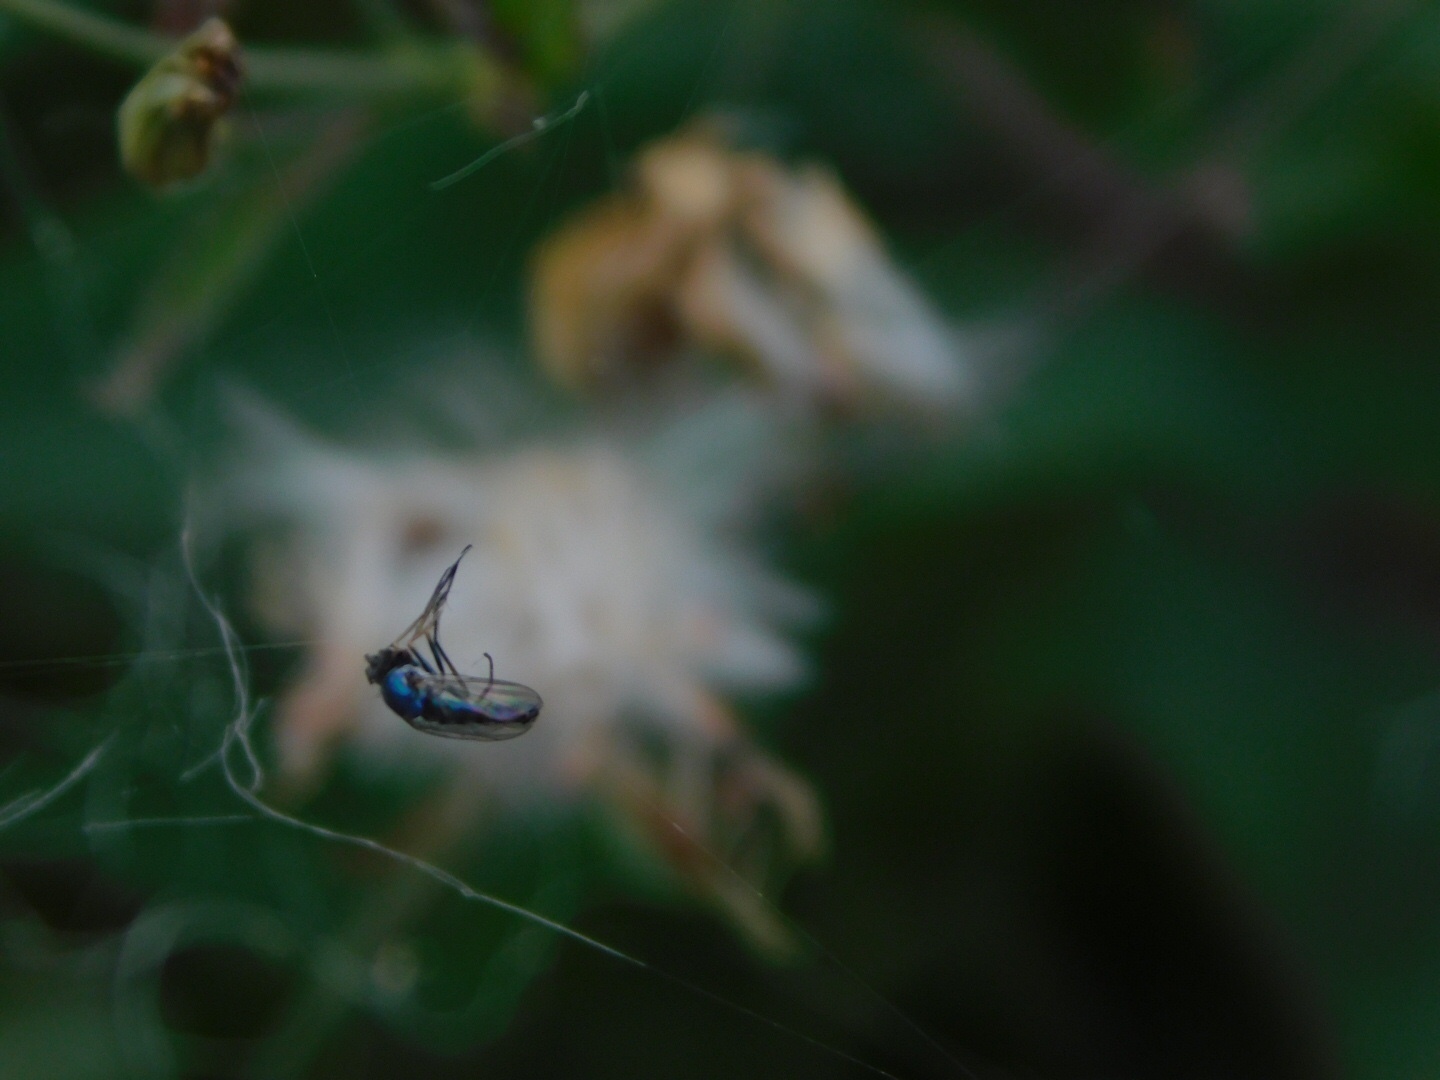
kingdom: Animalia
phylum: Arthropoda
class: Insecta
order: Diptera
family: Dolichopodidae
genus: Condylostylus
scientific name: Condylostylus longicornis
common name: Long-legged fly
